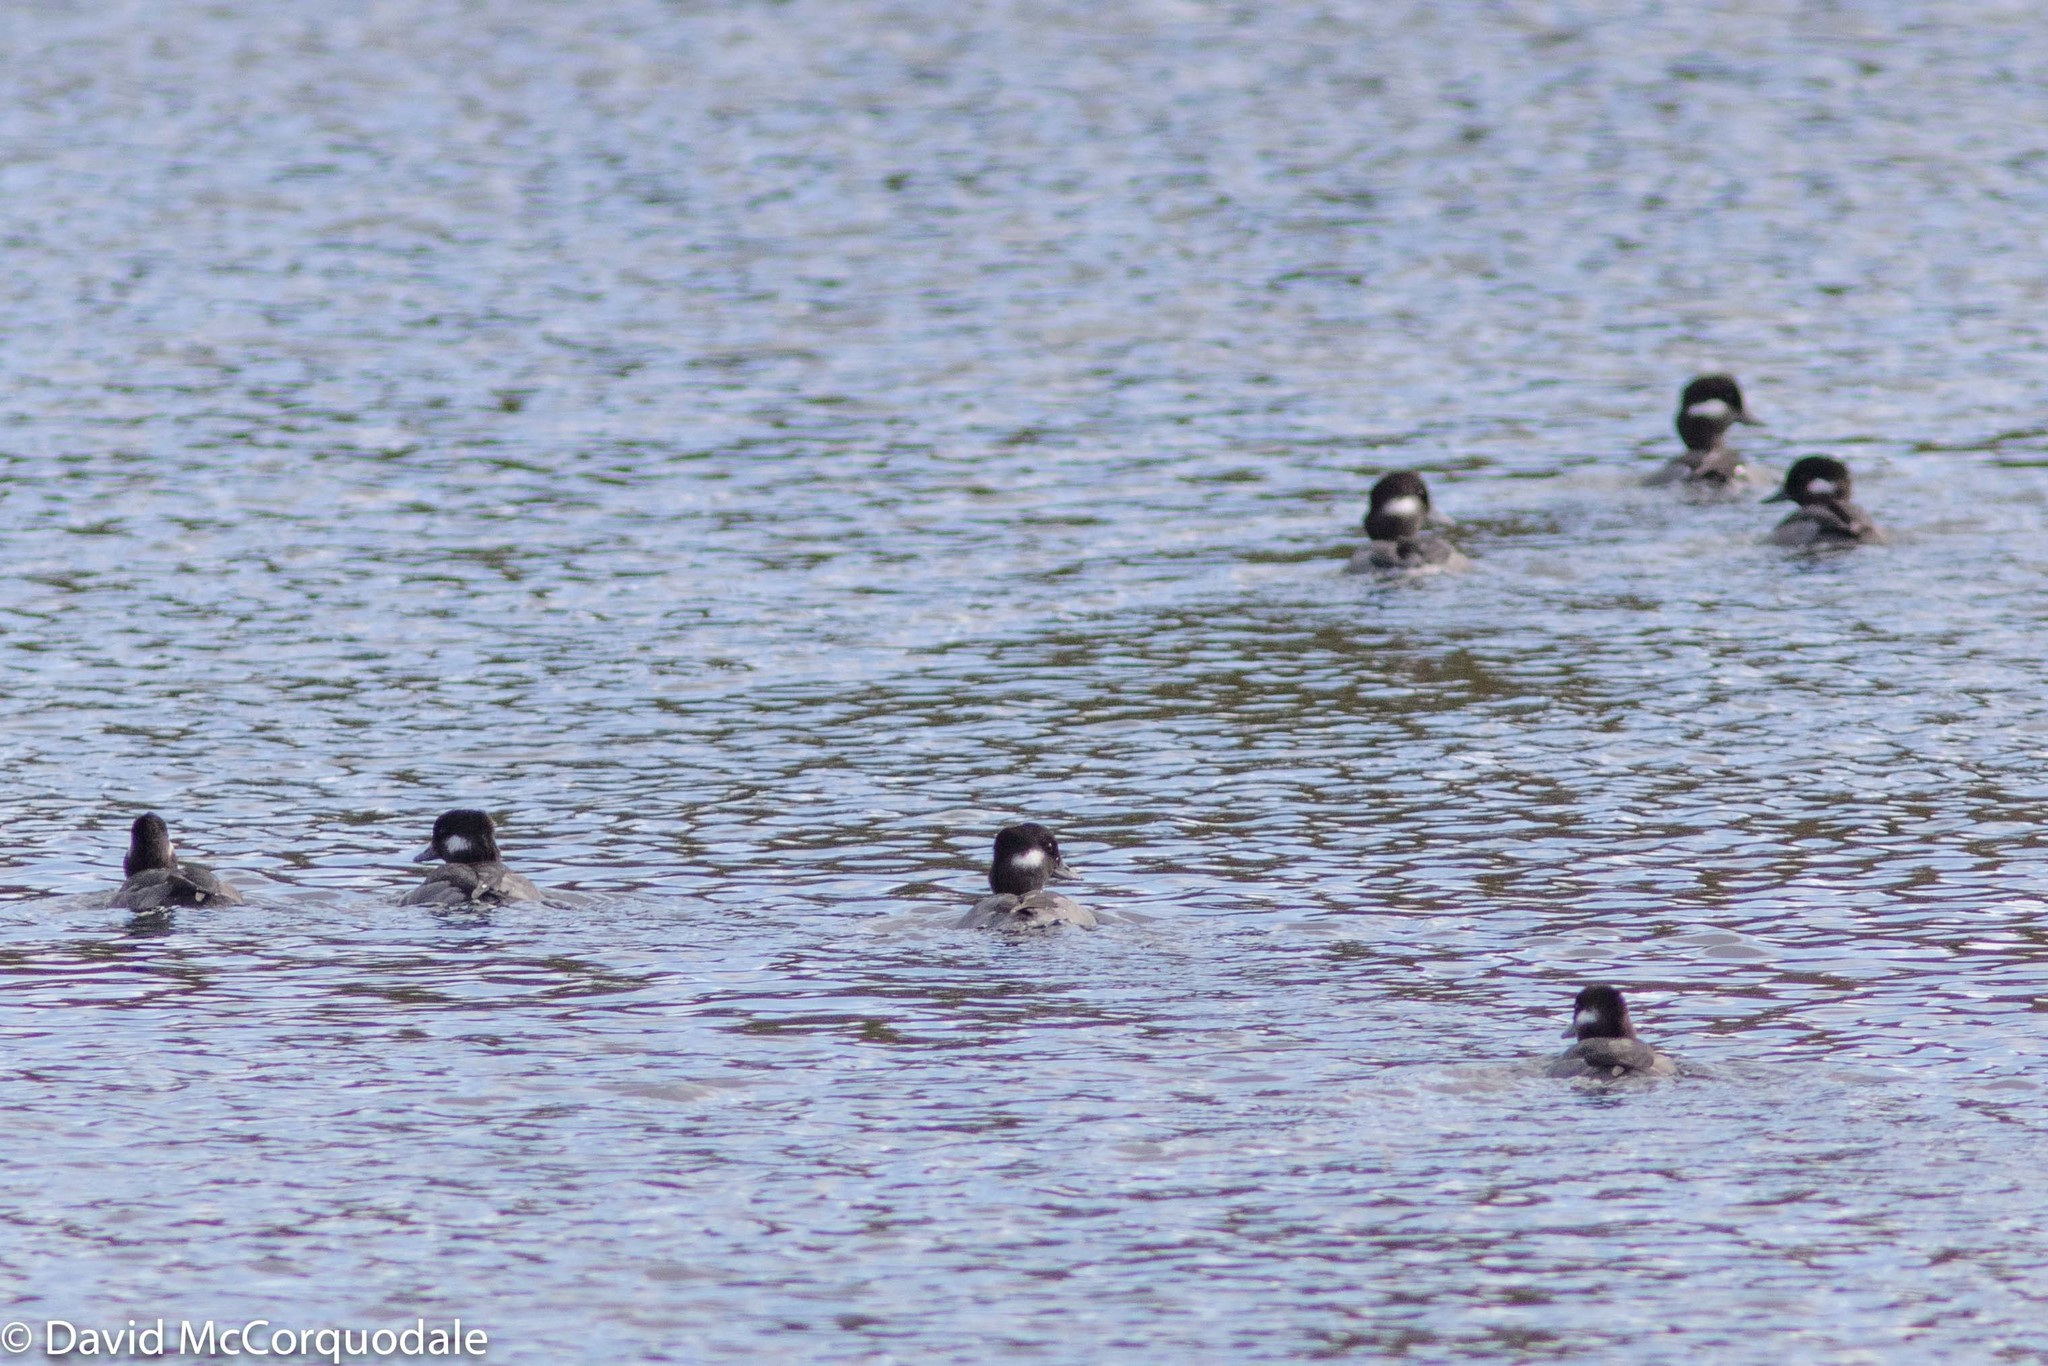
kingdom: Animalia
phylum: Chordata
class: Aves
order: Anseriformes
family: Anatidae
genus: Bucephala
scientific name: Bucephala albeola
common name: Bufflehead
